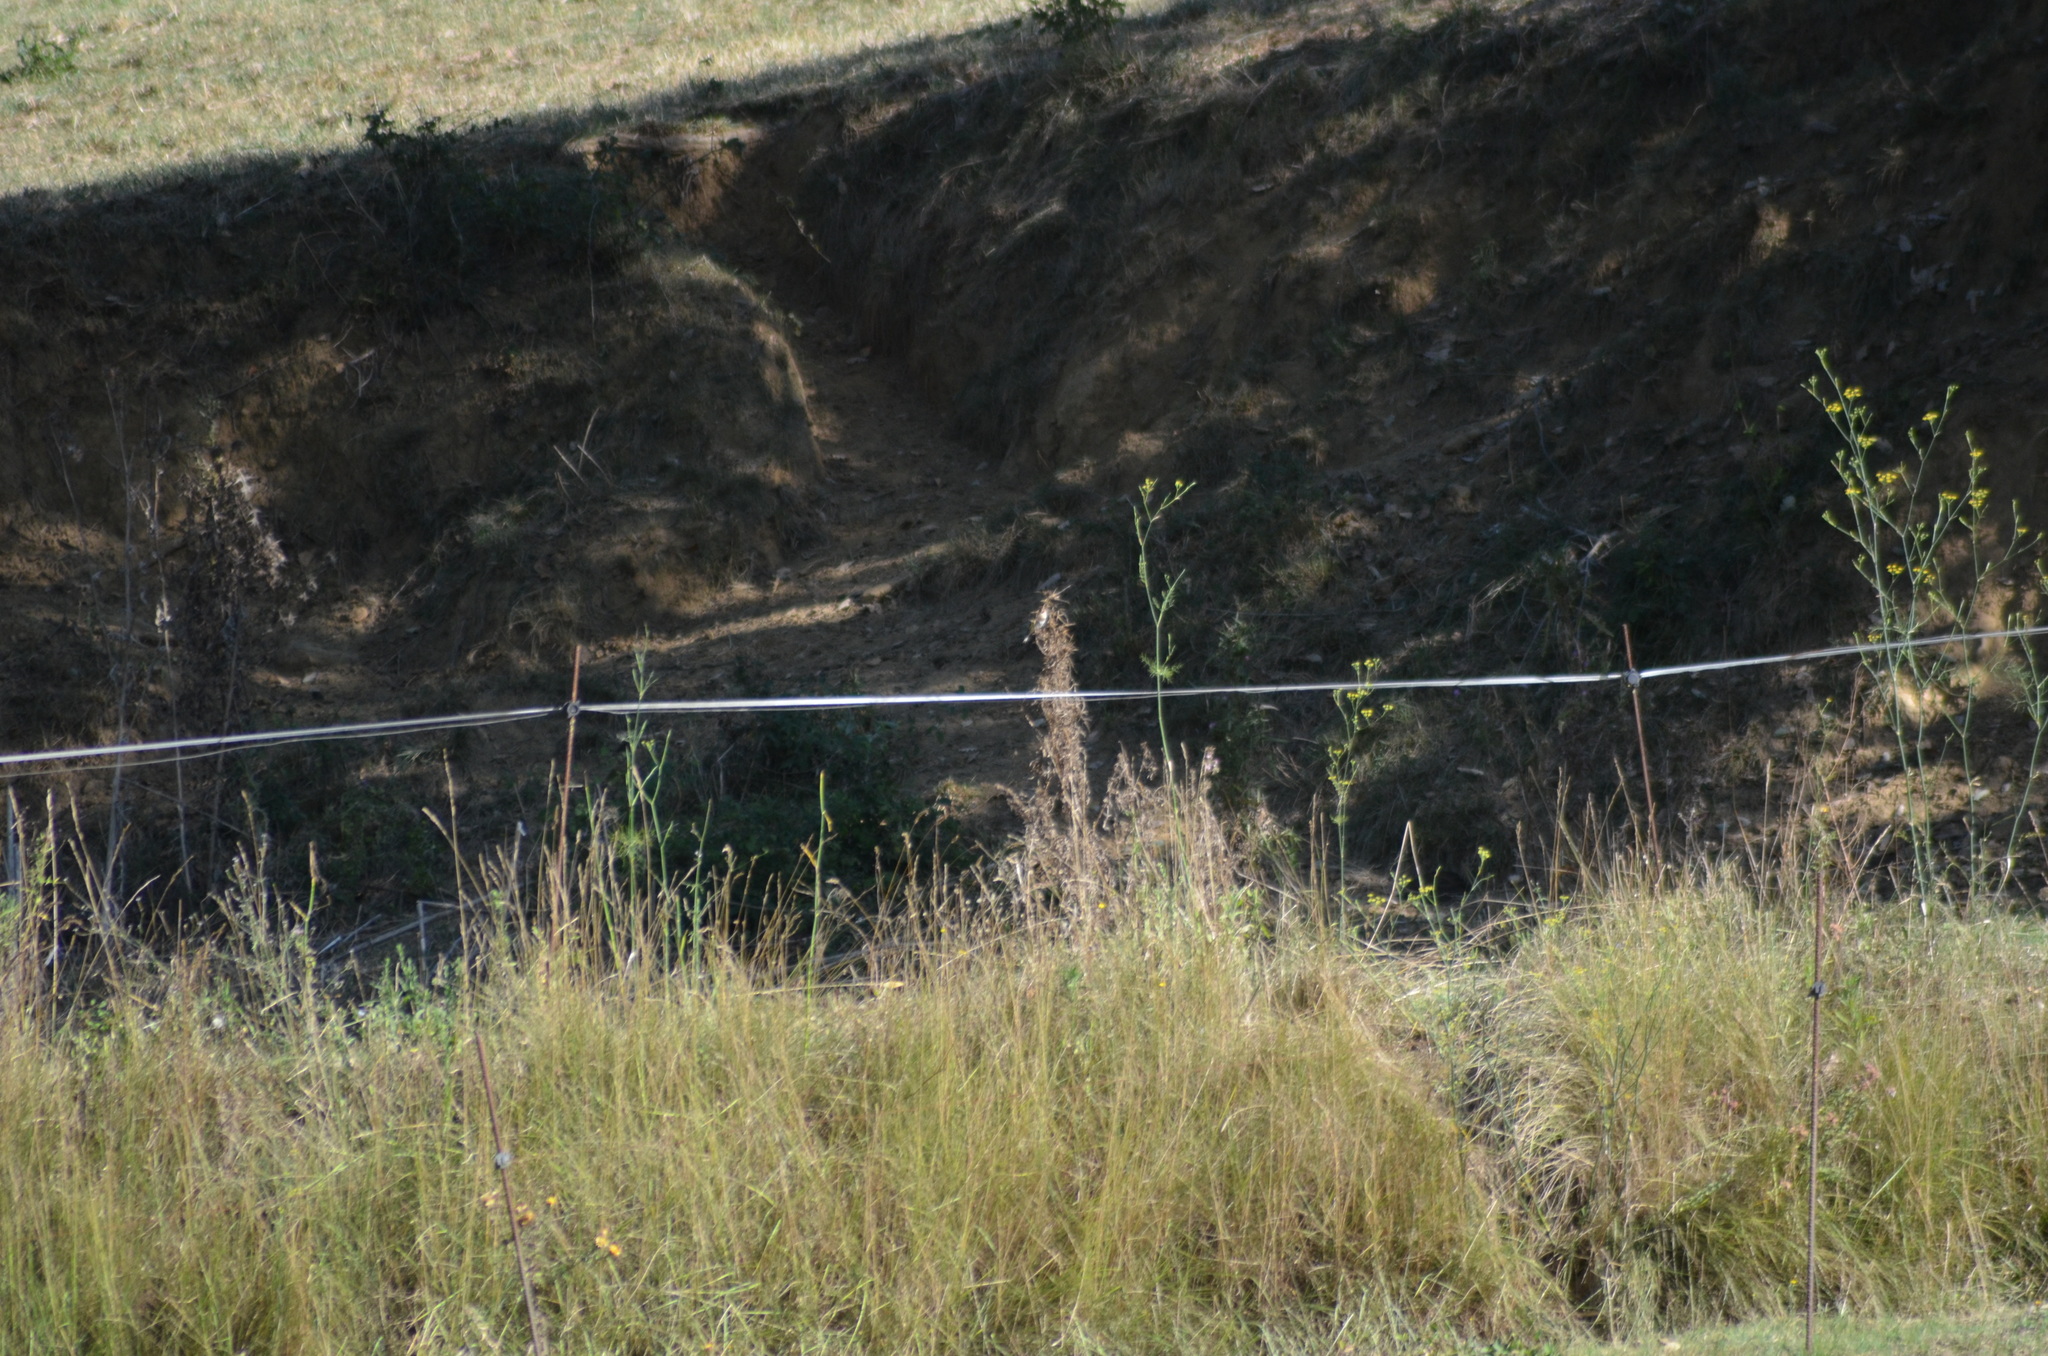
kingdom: Animalia
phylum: Chordata
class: Aves
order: Passeriformes
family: Fringillidae
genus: Carduelis
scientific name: Carduelis carduelis
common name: European goldfinch
